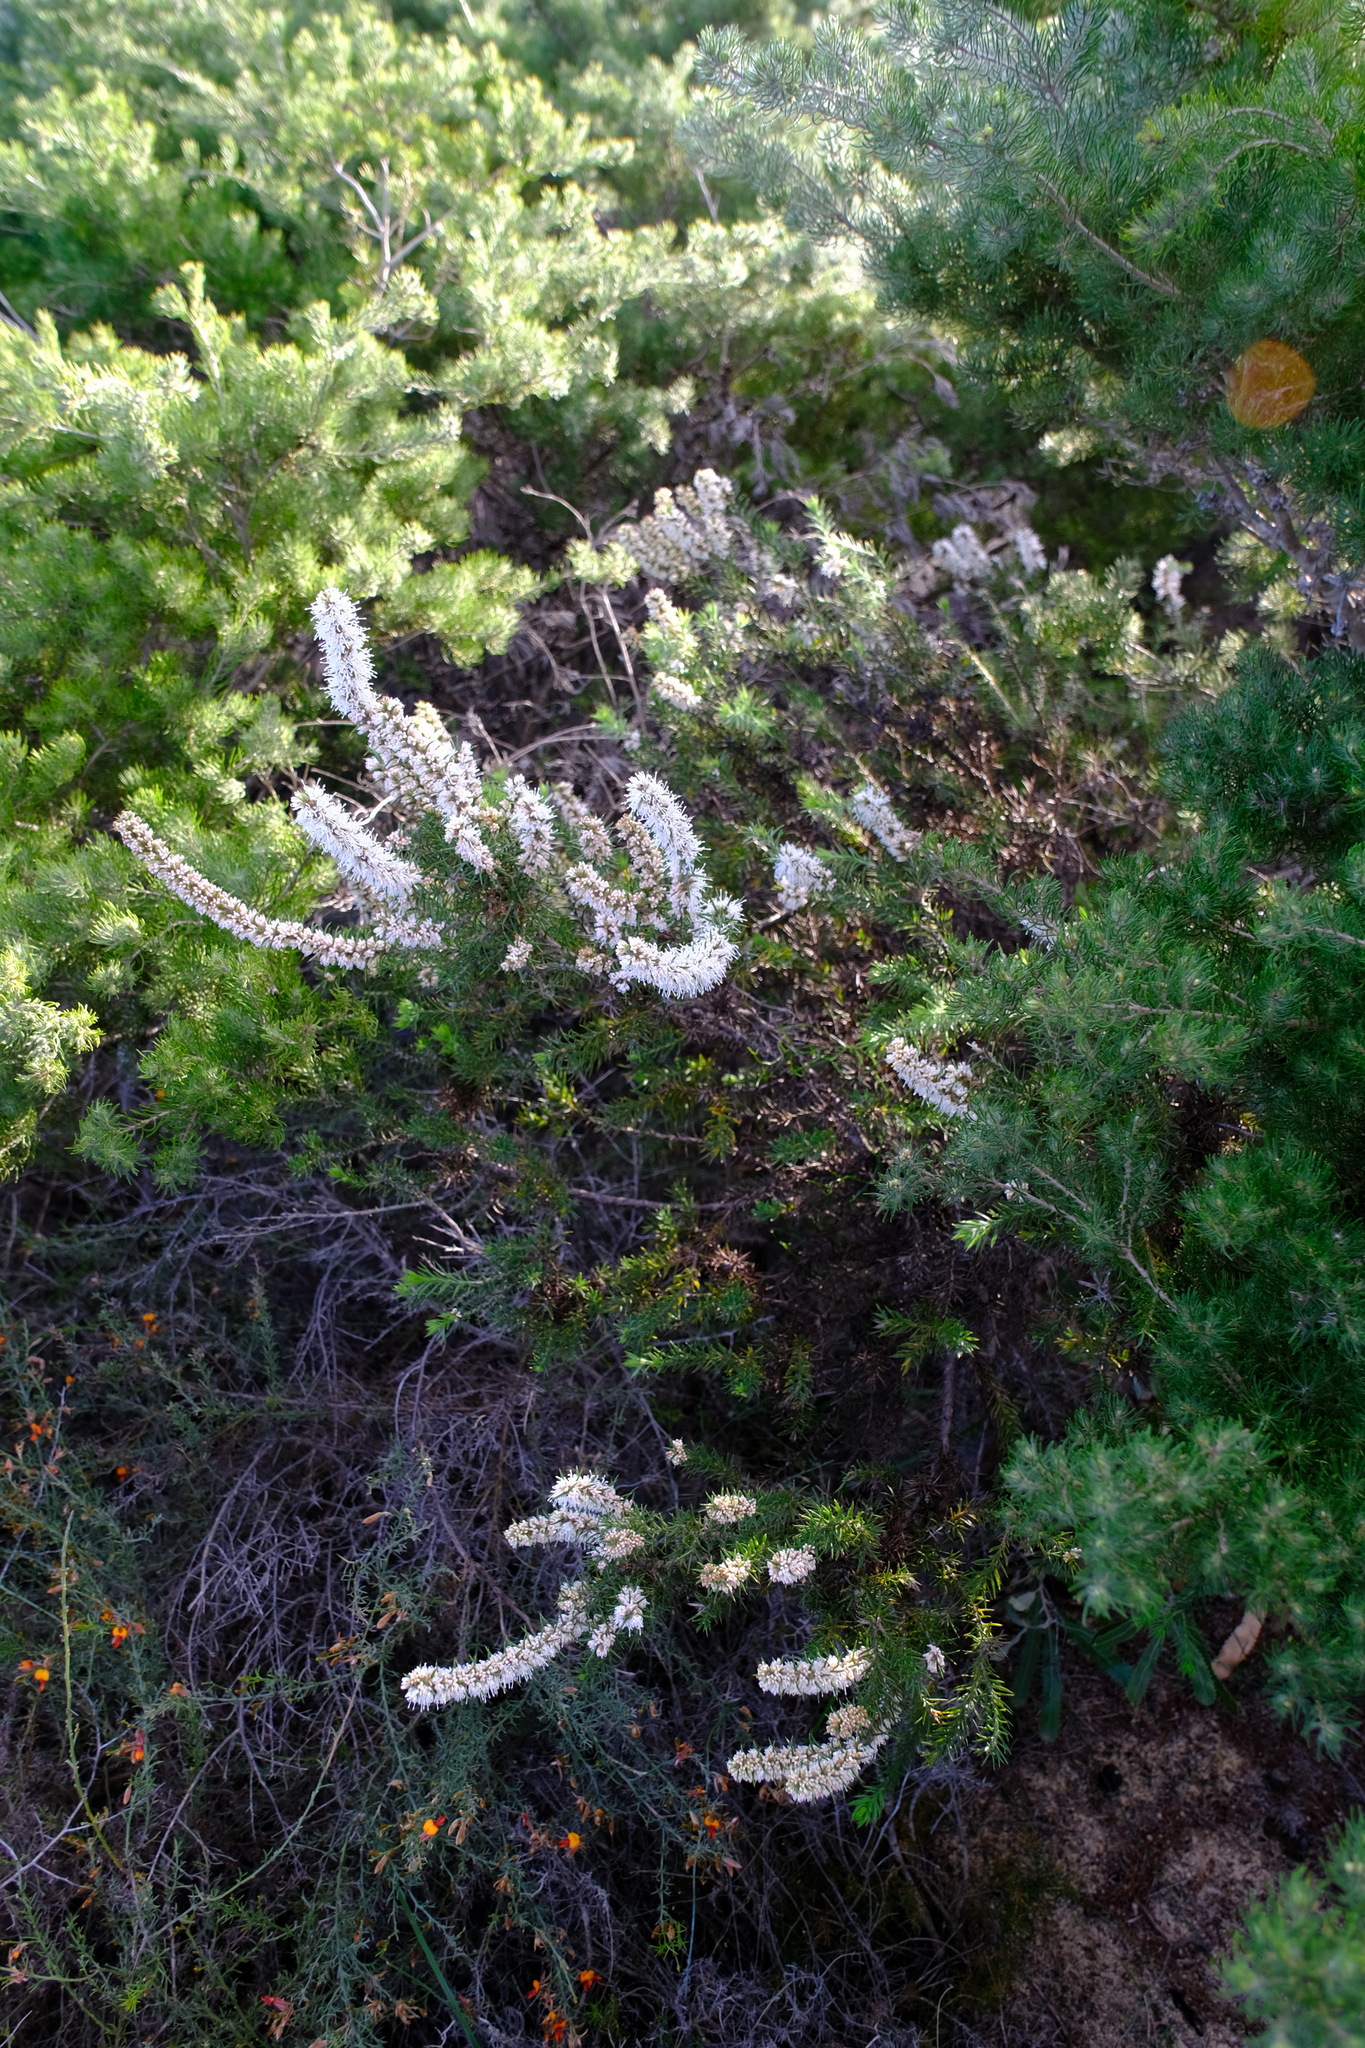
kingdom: Plantae
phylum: Tracheophyta
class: Magnoliopsida
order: Proteales
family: Proteaceae
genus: Hakea
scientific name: Hakea costata
